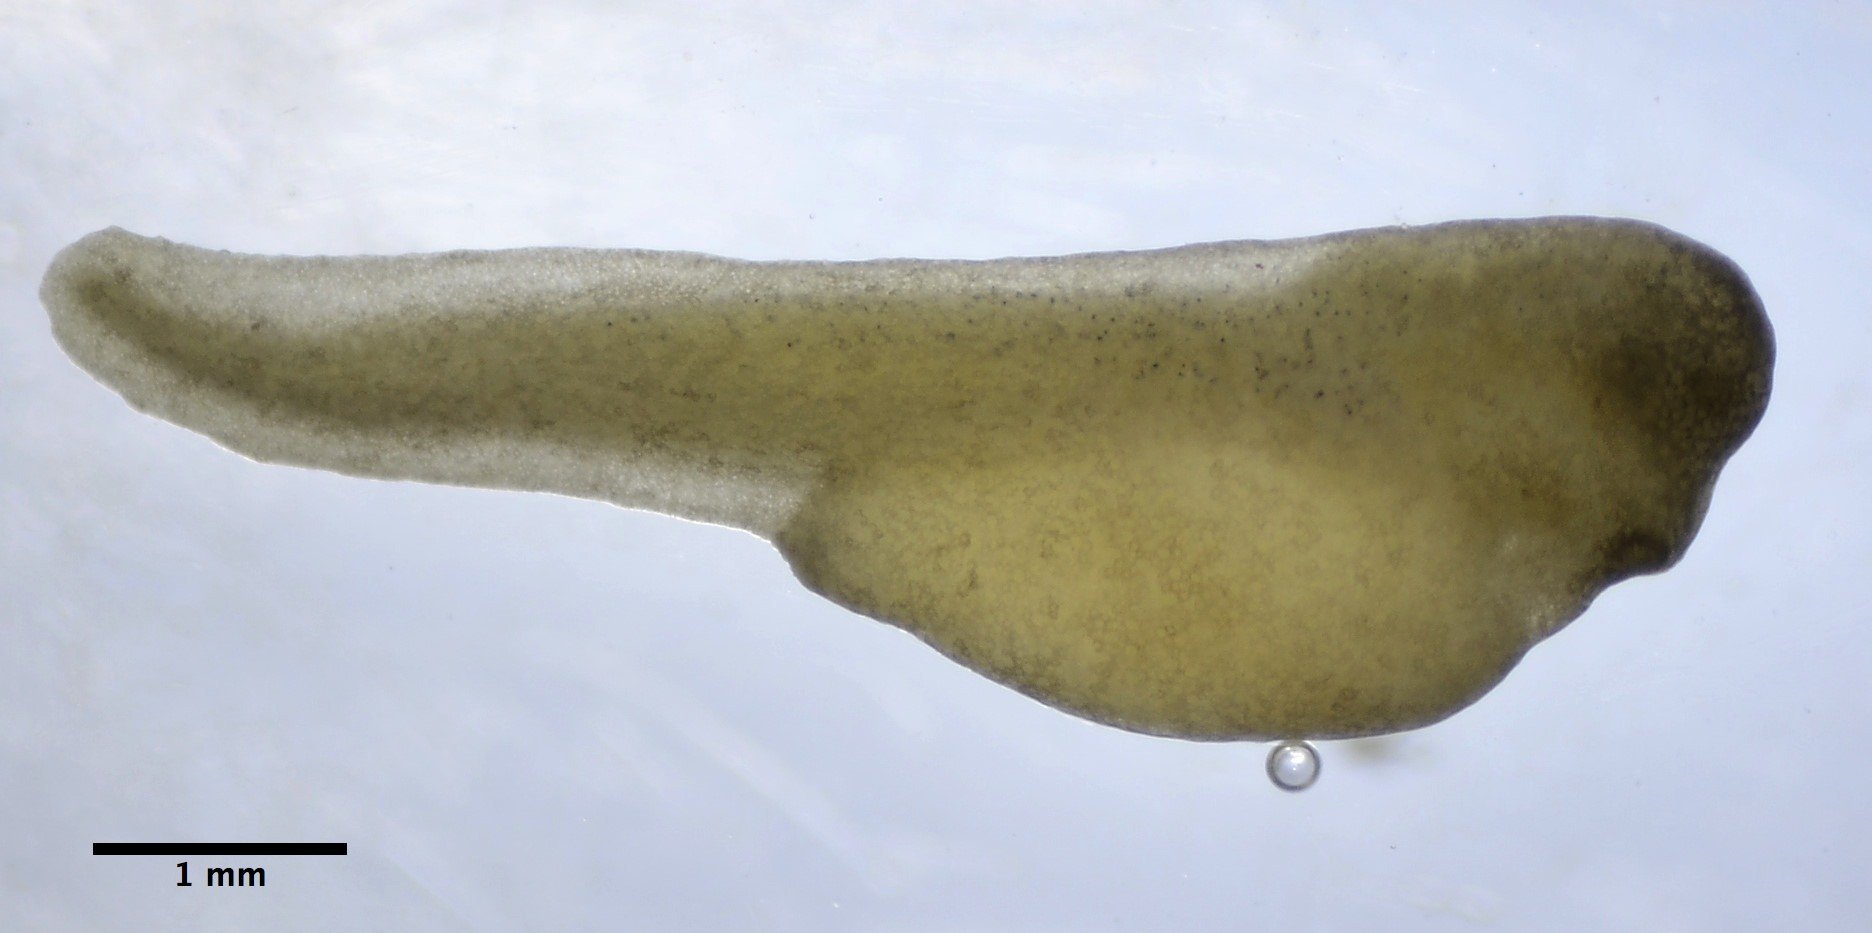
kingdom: Animalia
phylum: Chordata
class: Amphibia
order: Anura
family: Hylidae
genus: Pseudacris
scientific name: Pseudacris regilla
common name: Pacific chorus frog
